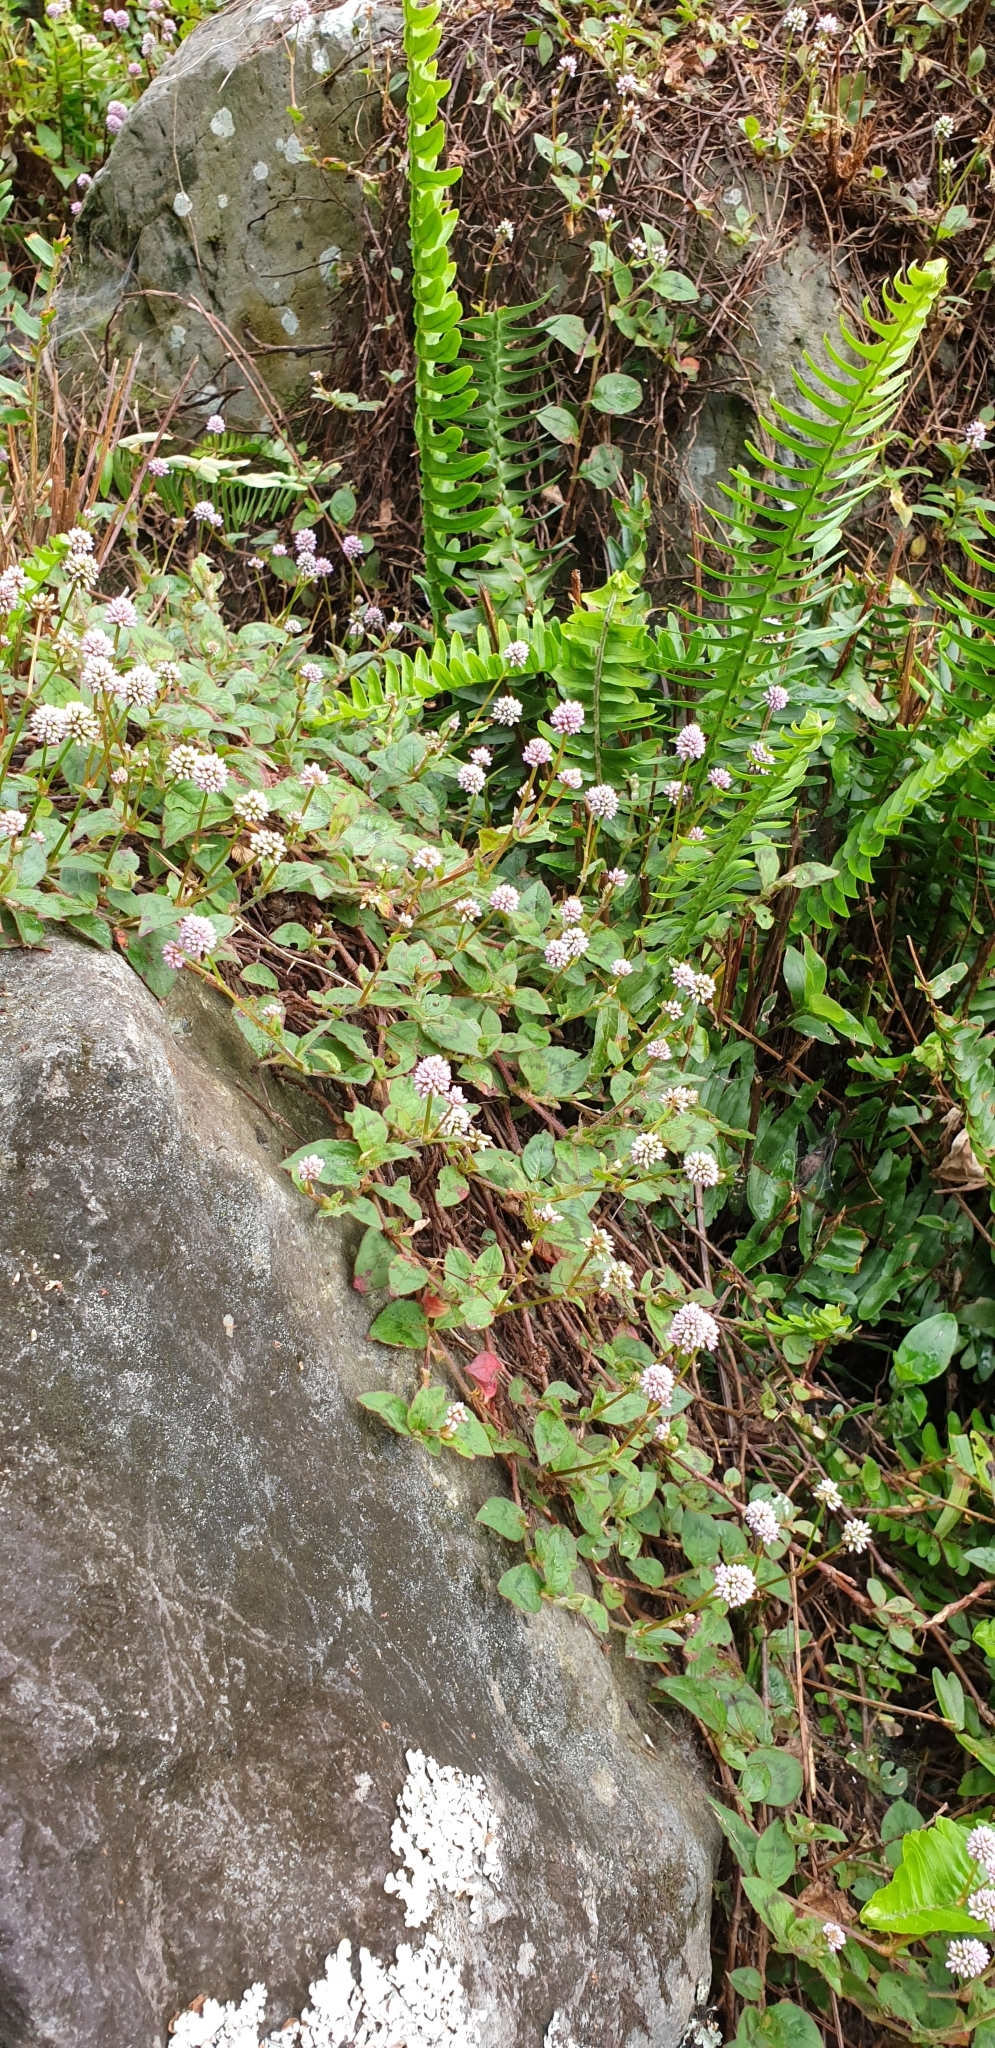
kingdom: Plantae
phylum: Tracheophyta
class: Magnoliopsida
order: Caryophyllales
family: Polygonaceae
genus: Persicaria
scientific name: Persicaria capitata
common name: Pinkhead smartweed
